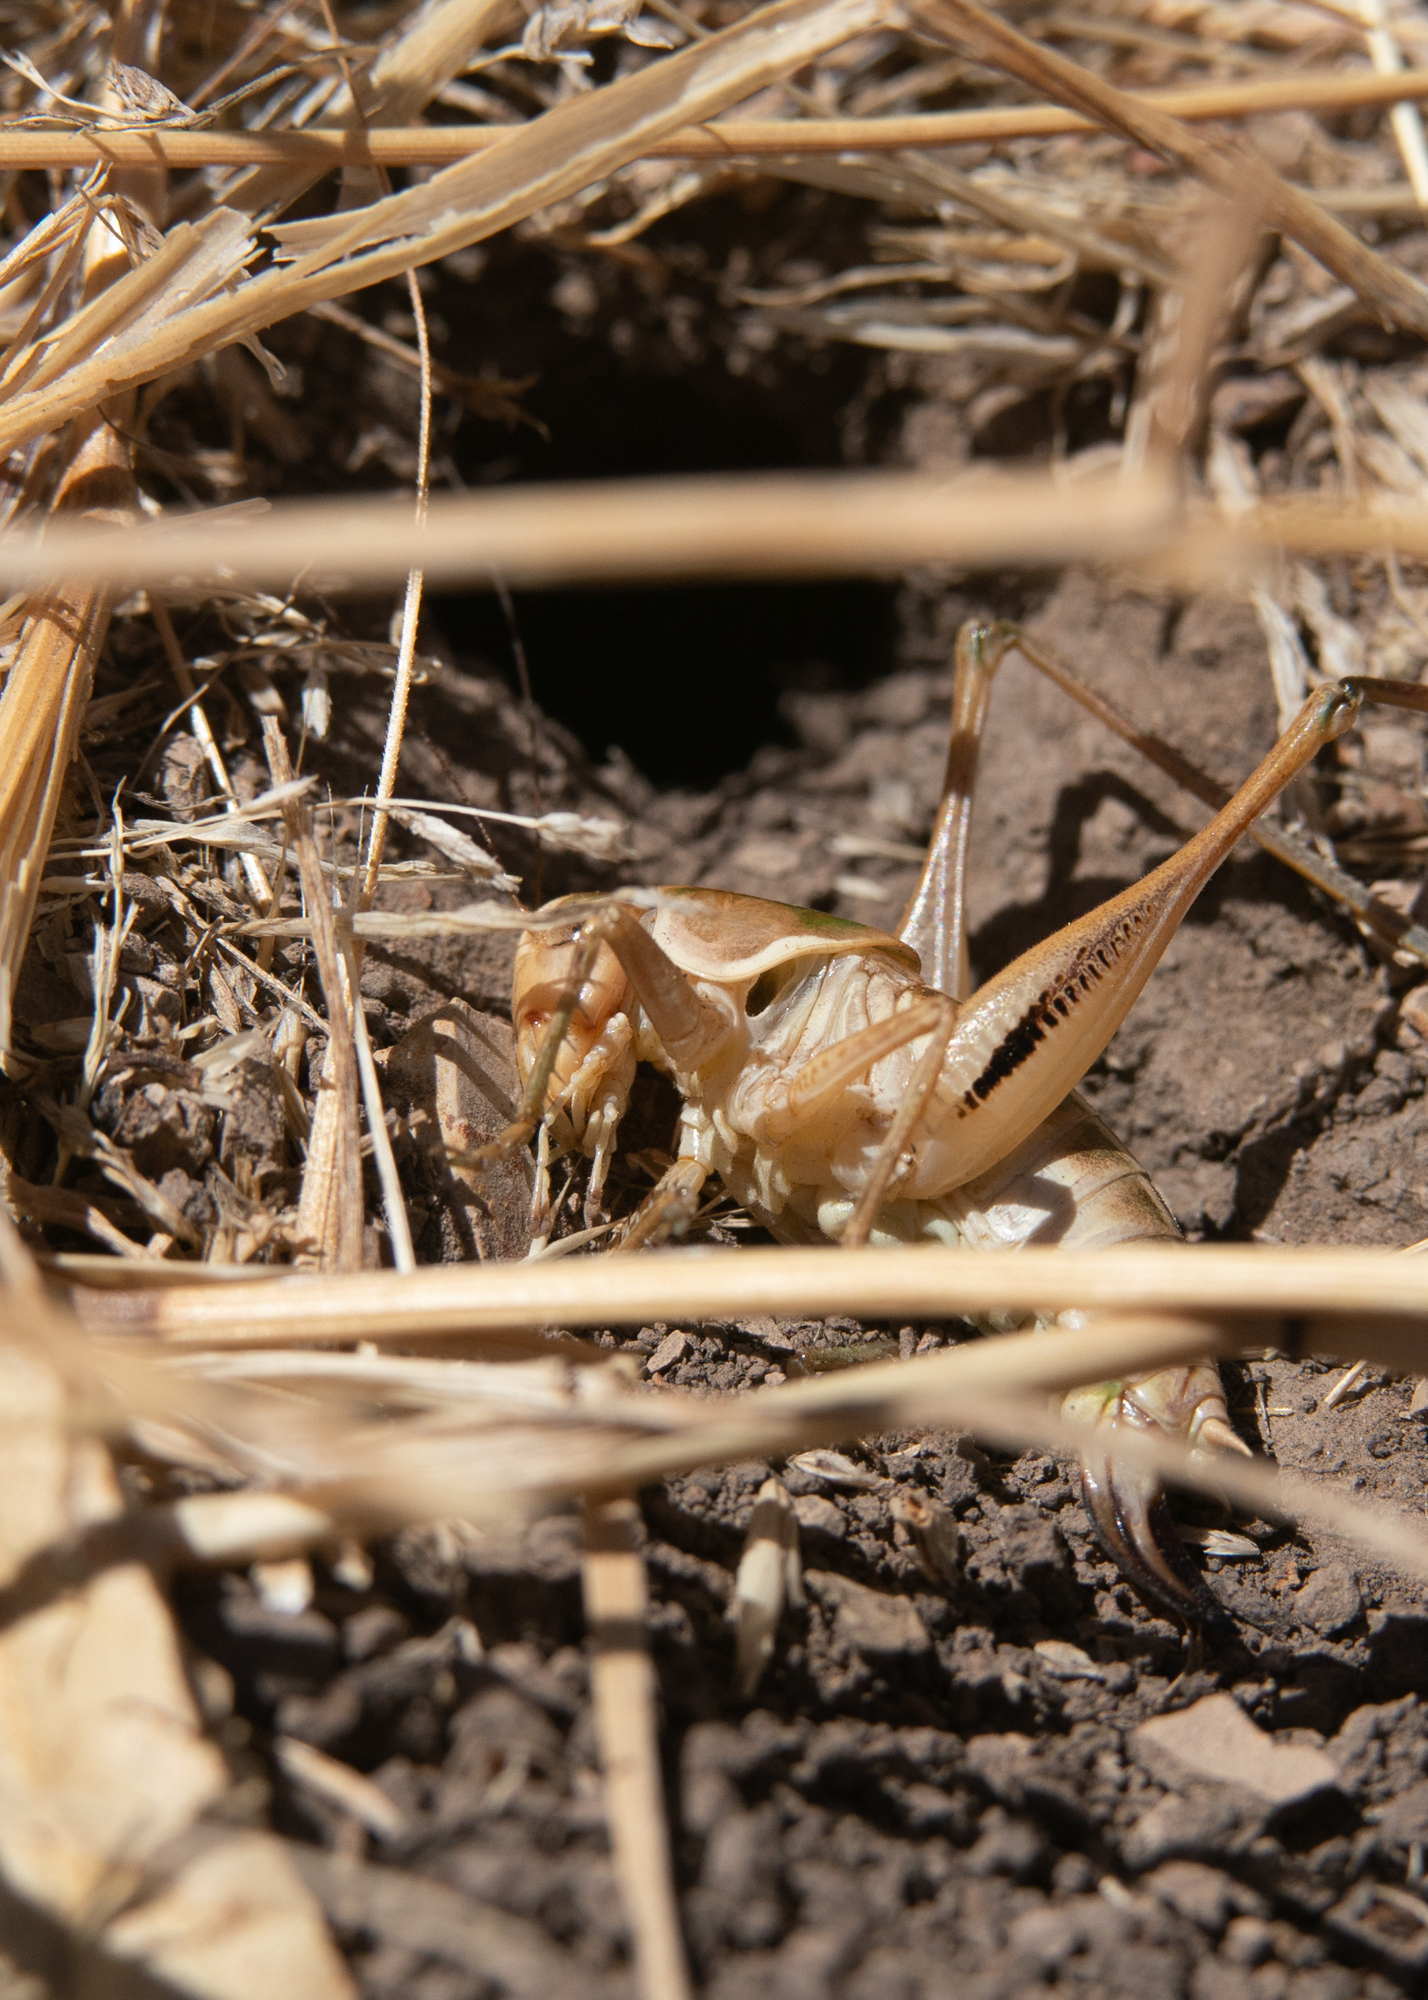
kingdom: Animalia
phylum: Arthropoda
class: Insecta
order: Orthoptera
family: Tettigoniidae
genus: Decticita
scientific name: Decticita brevicauda
